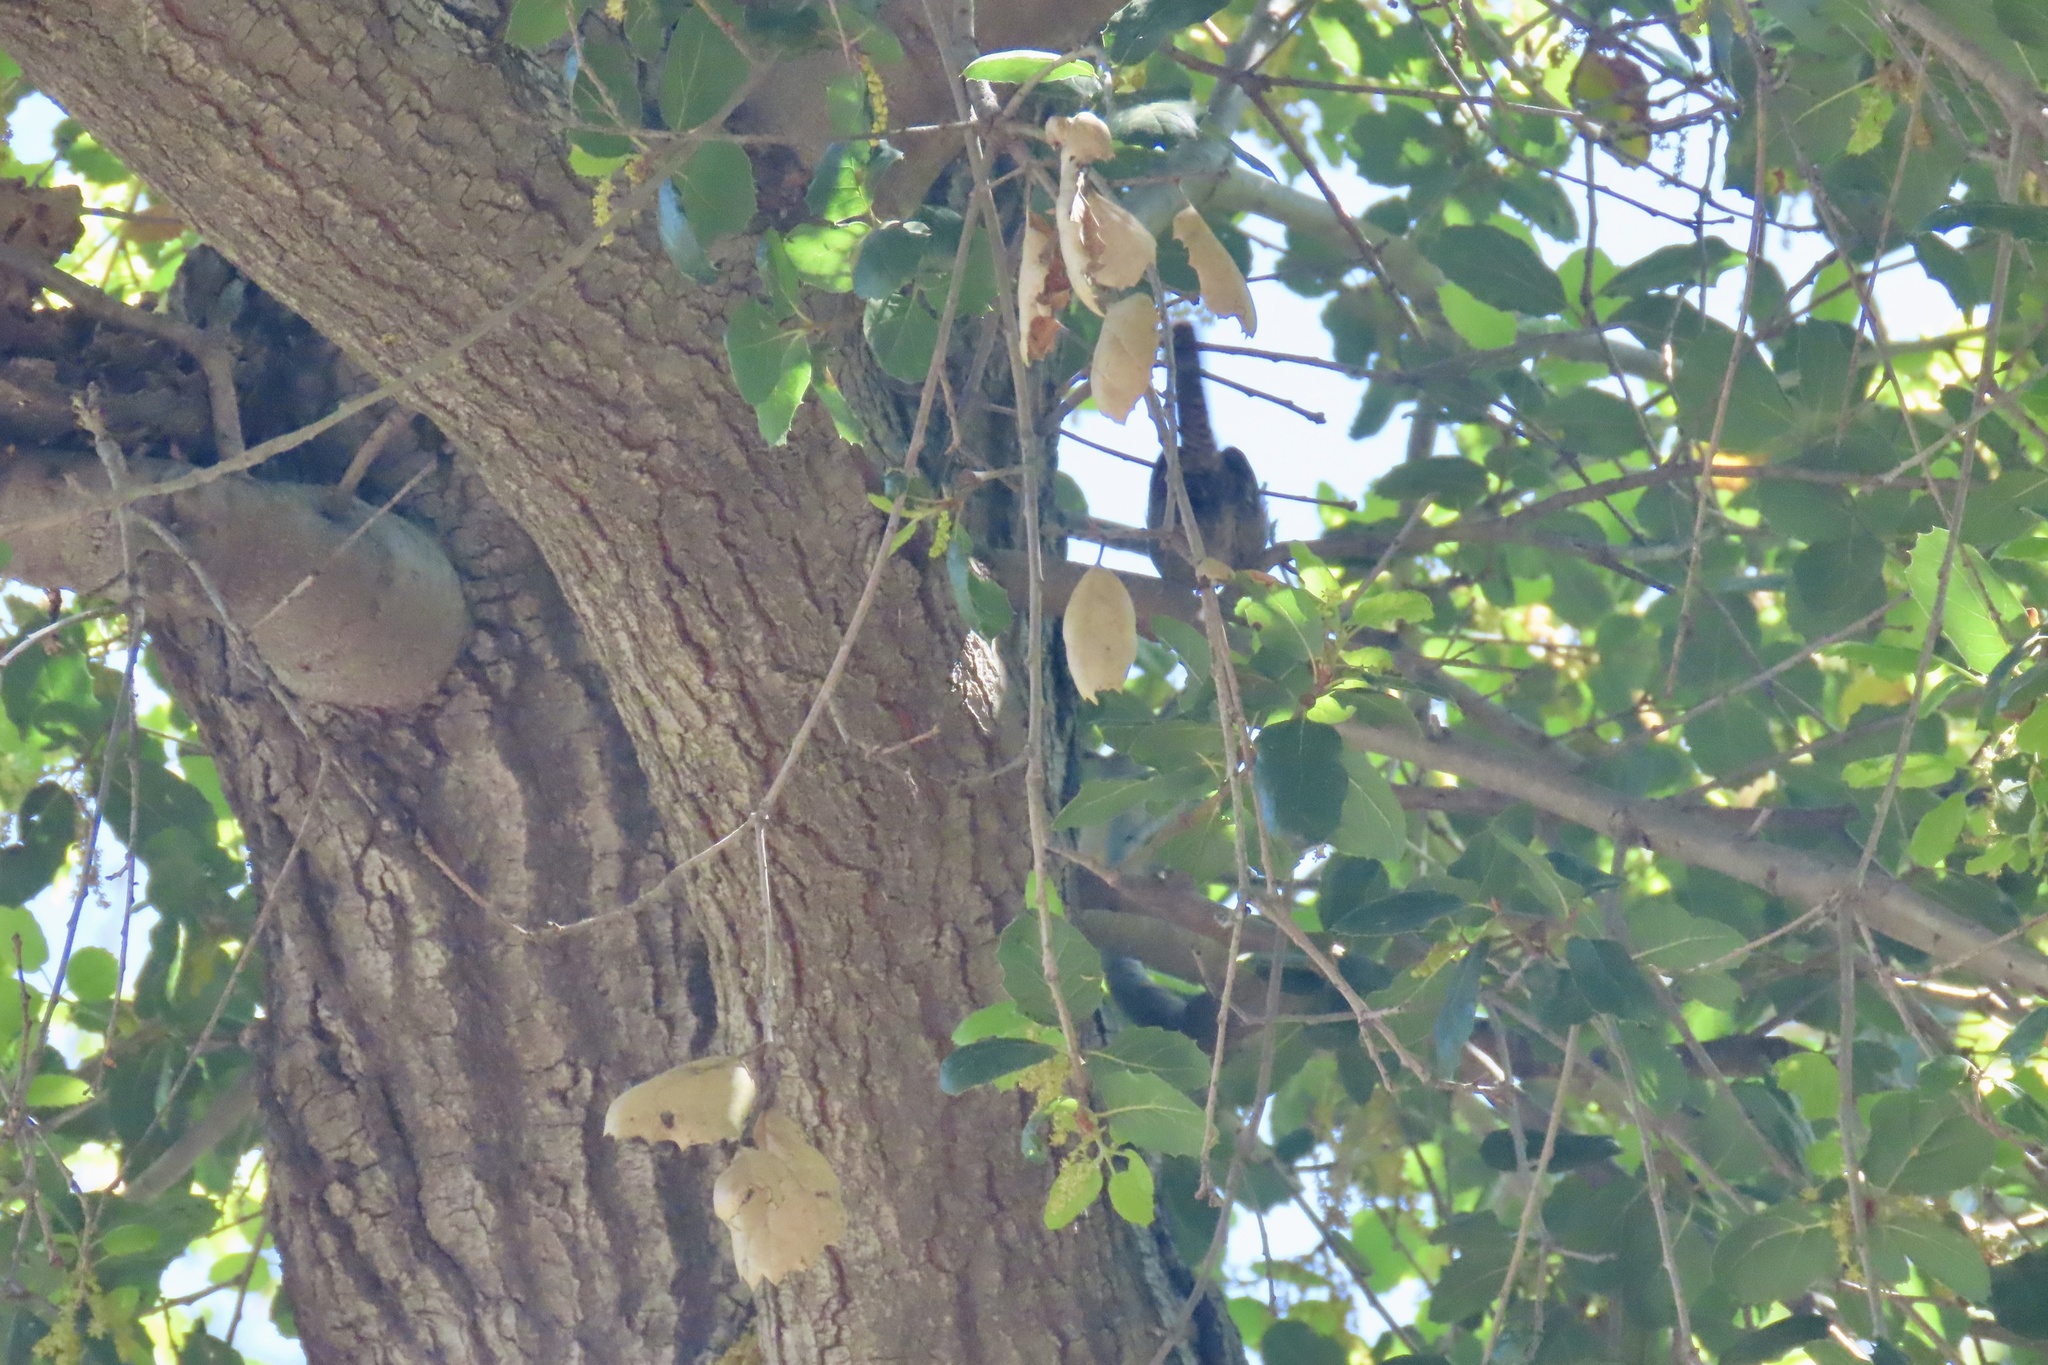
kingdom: Animalia
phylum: Chordata
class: Aves
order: Passeriformes
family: Troglodytidae
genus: Thryomanes
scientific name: Thryomanes bewickii
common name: Bewick's wren
